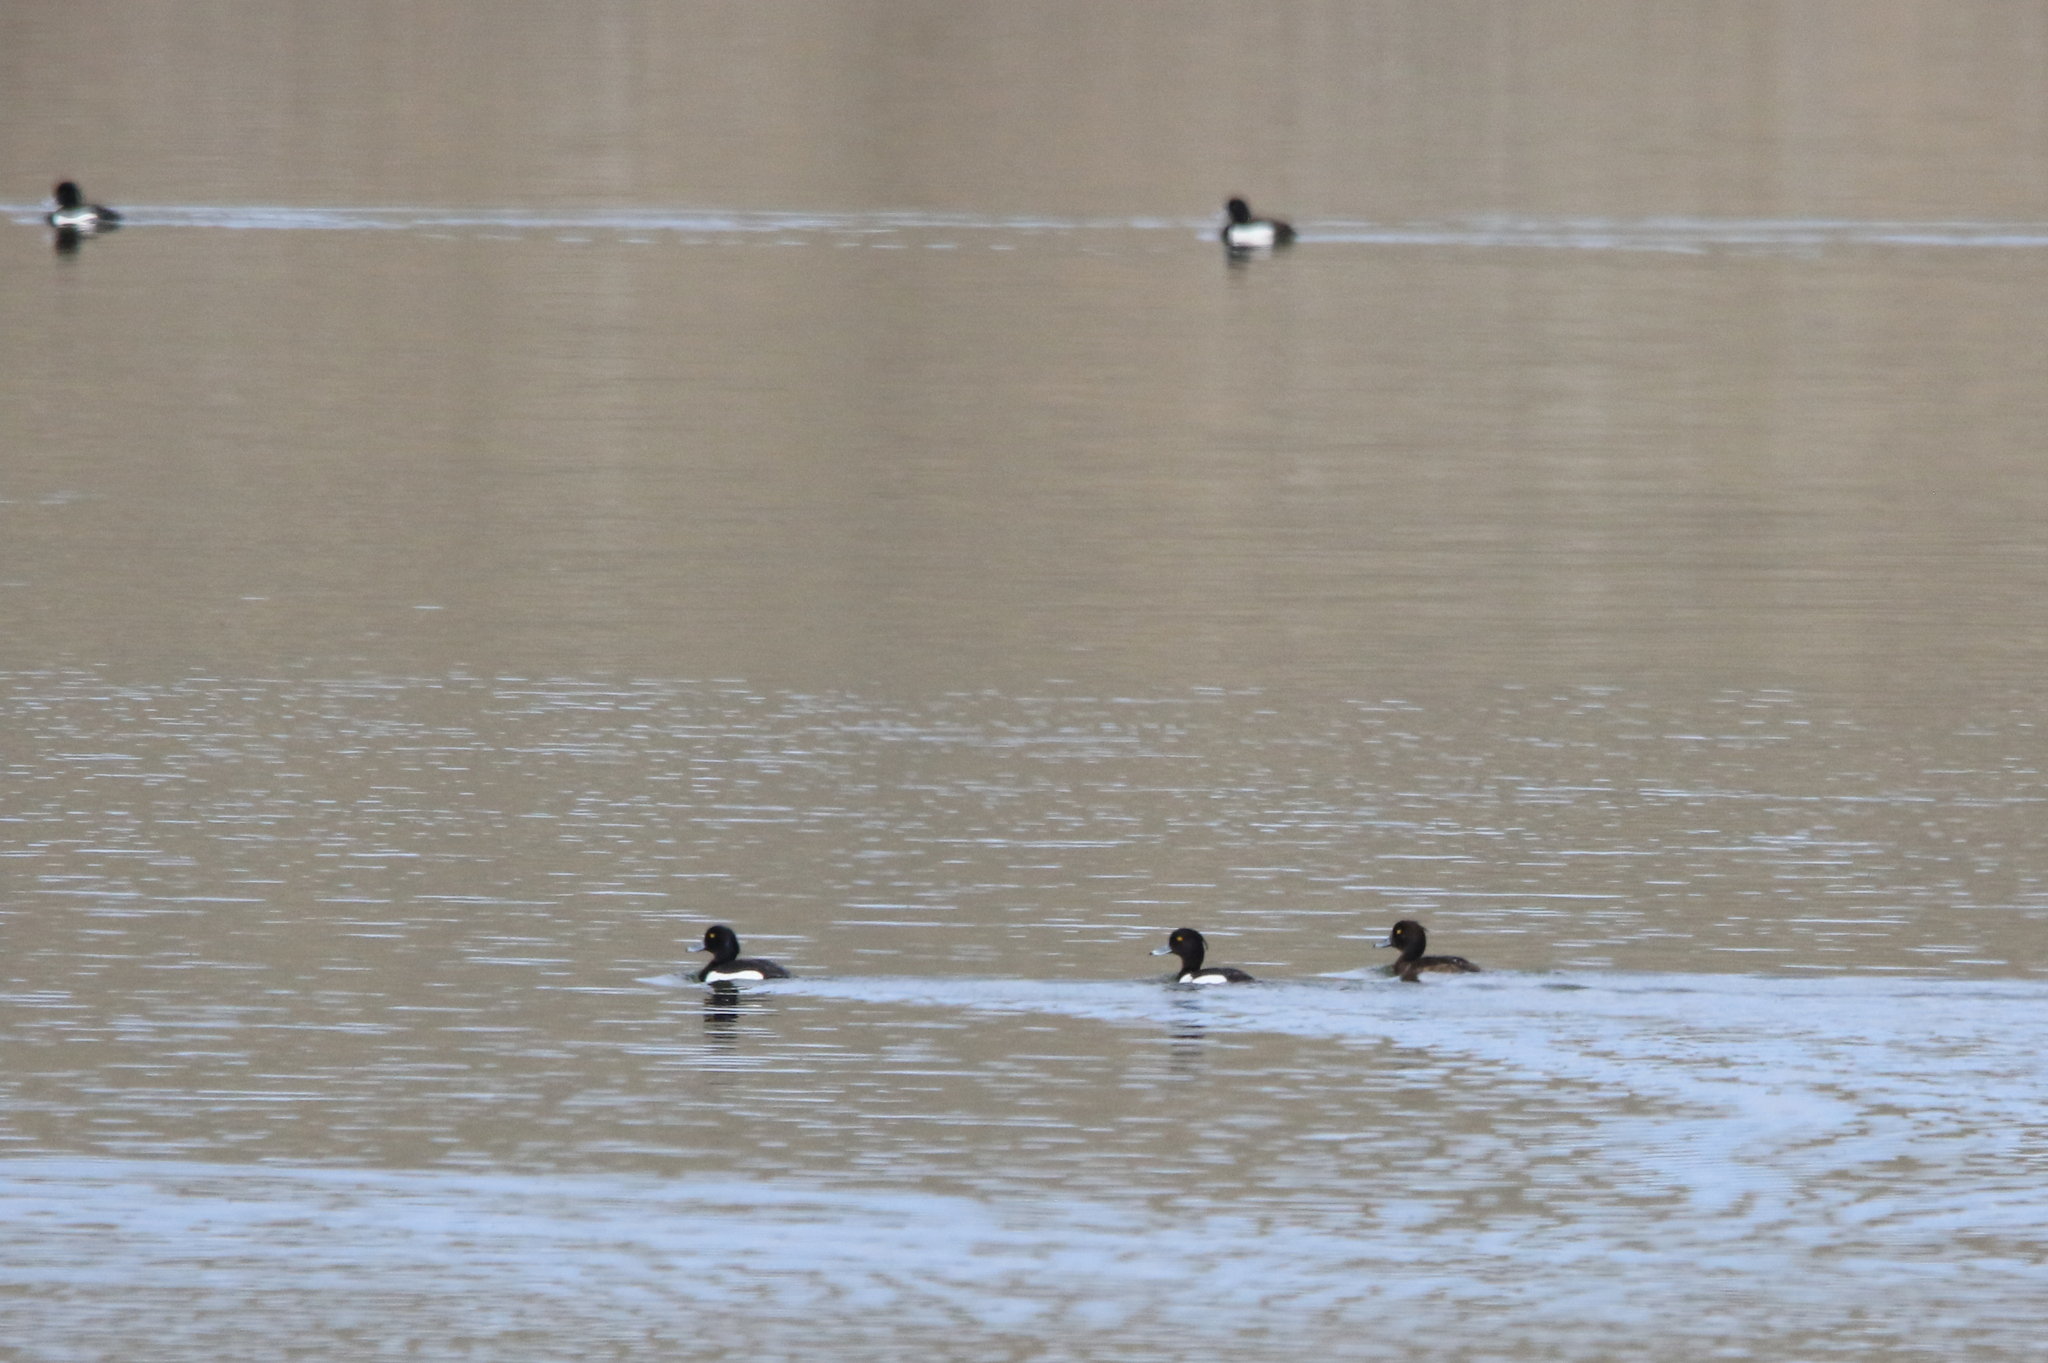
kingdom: Animalia
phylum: Chordata
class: Aves
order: Anseriformes
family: Anatidae
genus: Aythya
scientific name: Aythya fuligula
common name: Tufted duck
